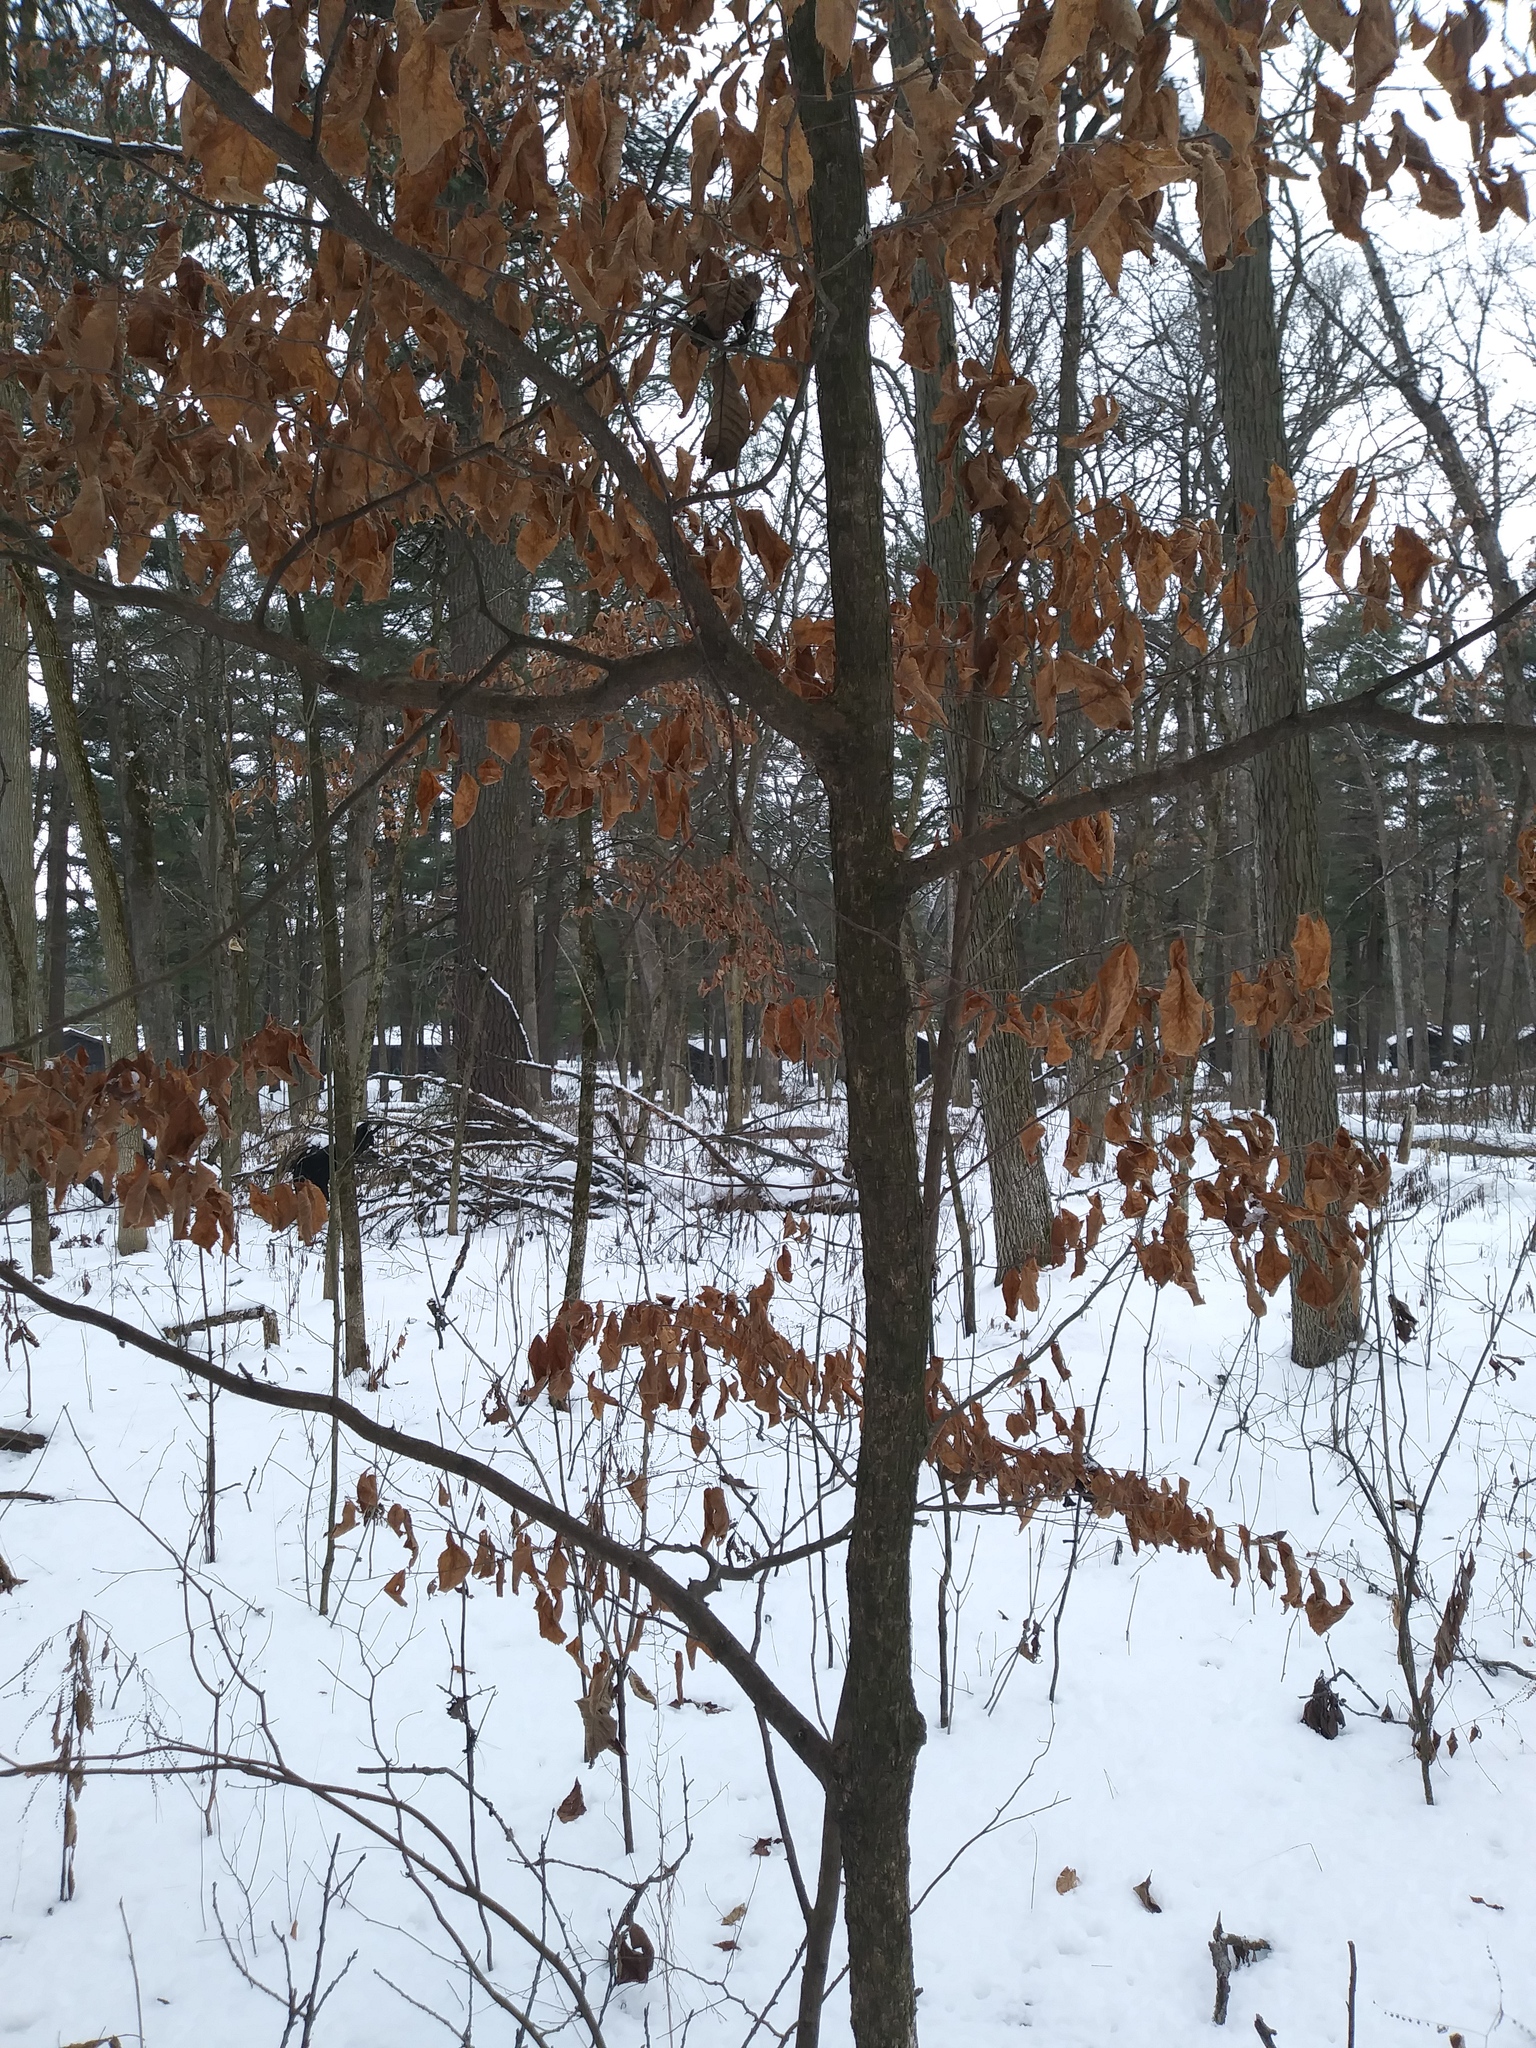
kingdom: Plantae
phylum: Tracheophyta
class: Magnoliopsida
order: Fagales
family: Betulaceae
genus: Ostrya
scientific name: Ostrya virginiana
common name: Ironwood
